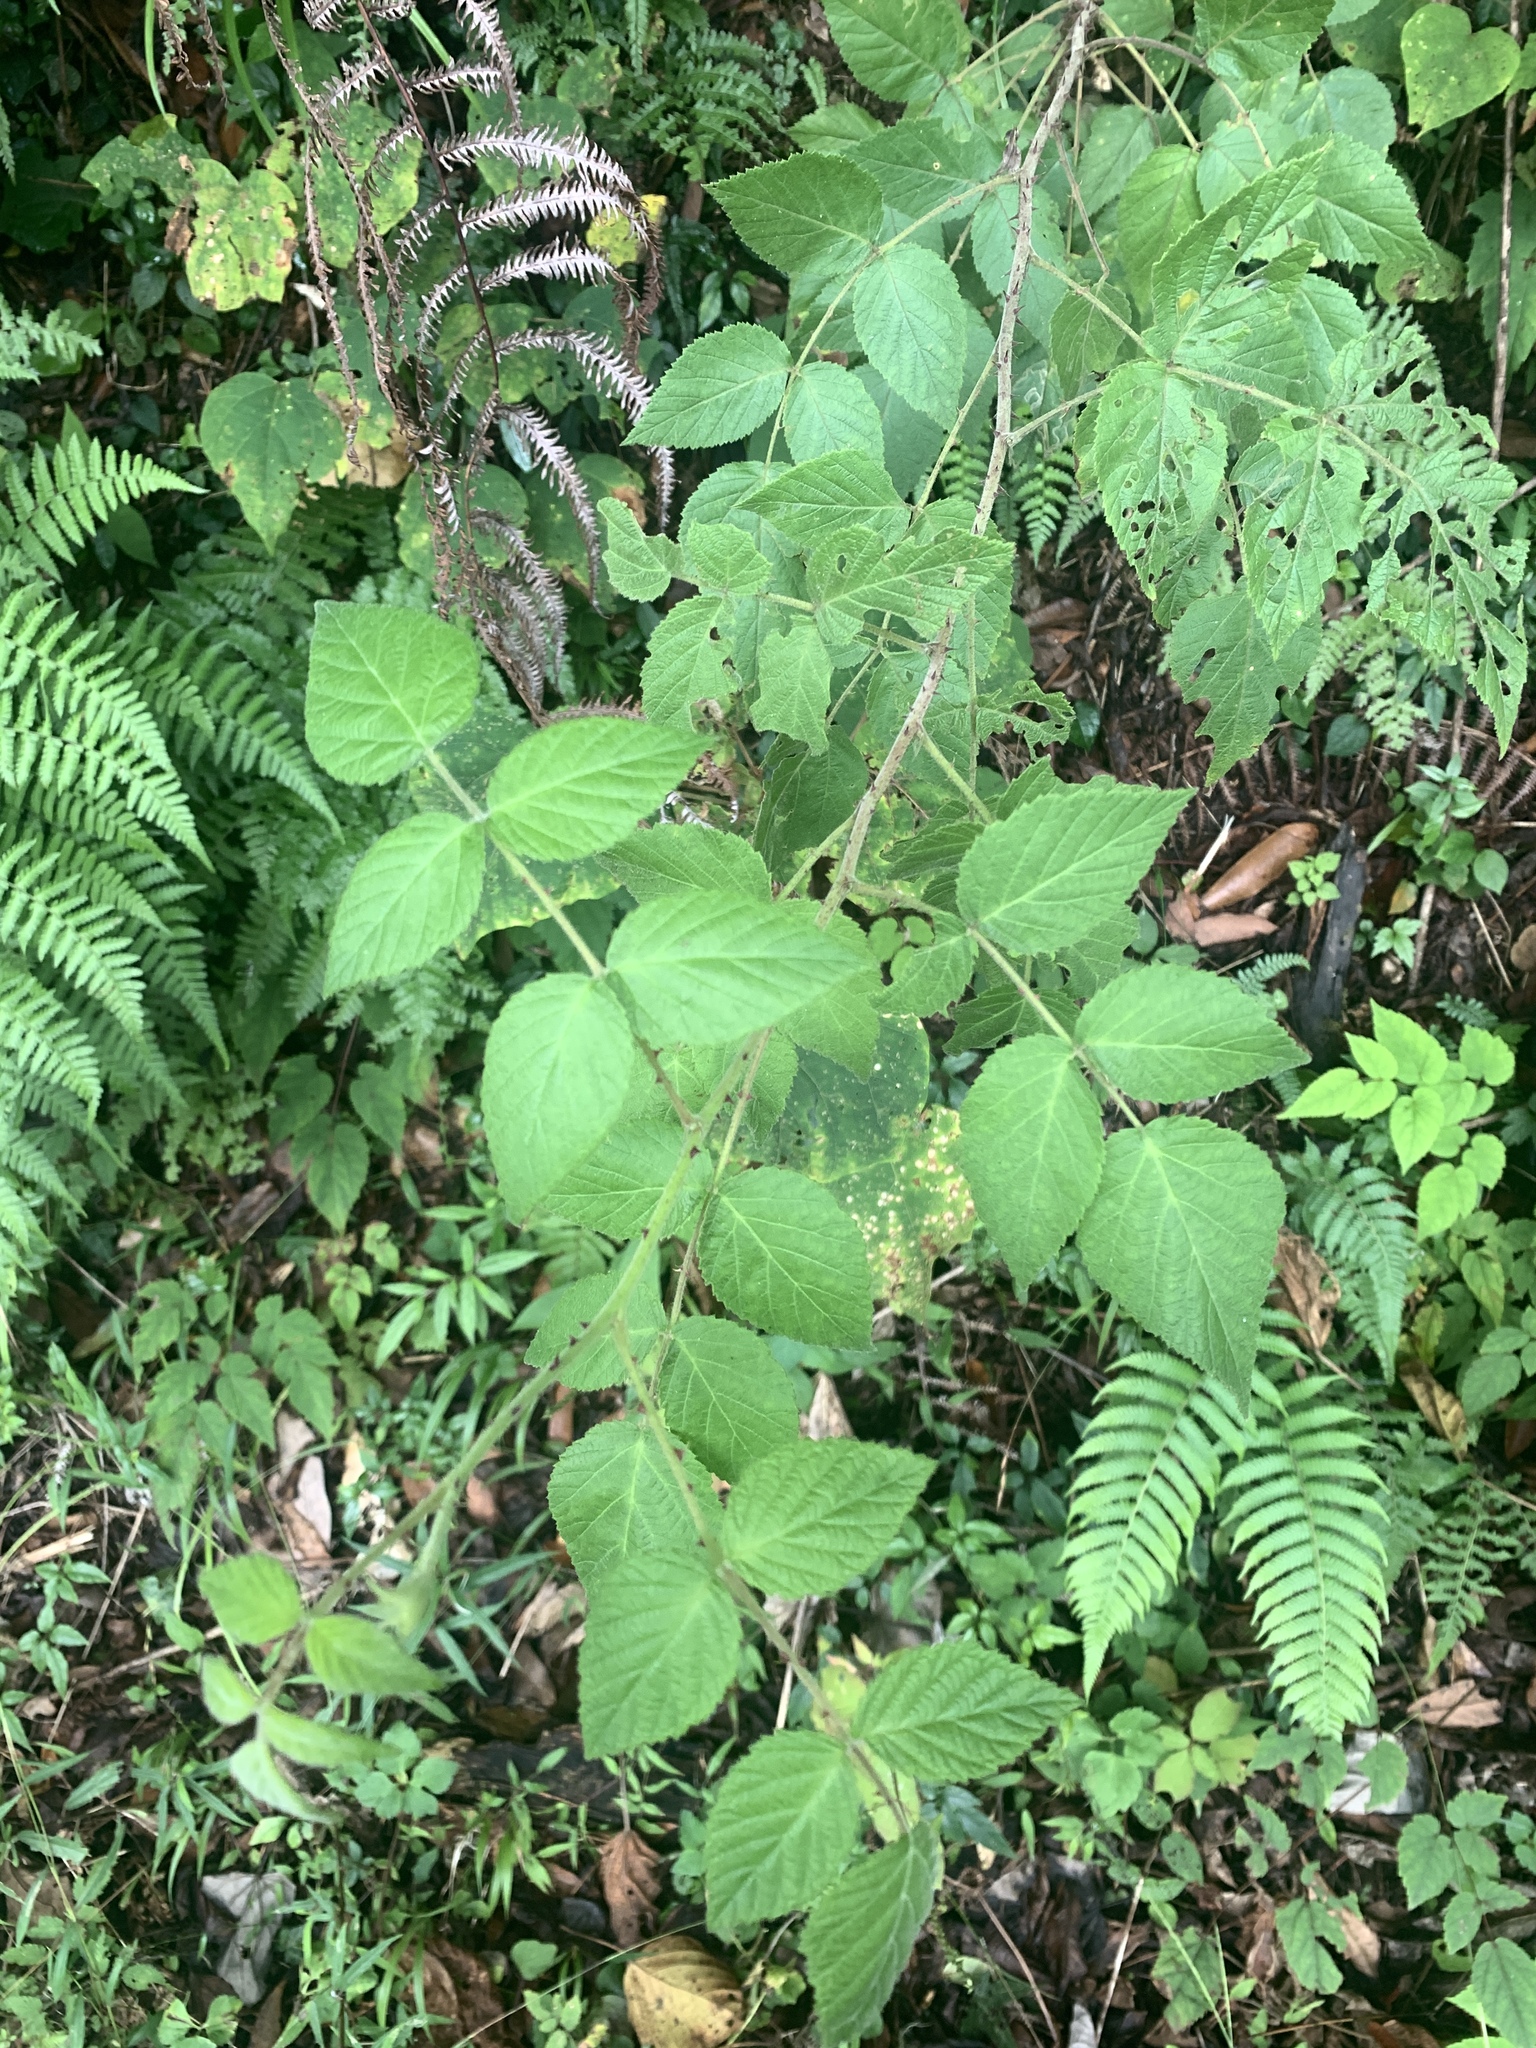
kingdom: Plantae
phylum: Tracheophyta
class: Magnoliopsida
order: Rosales
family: Rosaceae
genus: Rubus
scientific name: Rubus parviaraliifolius
